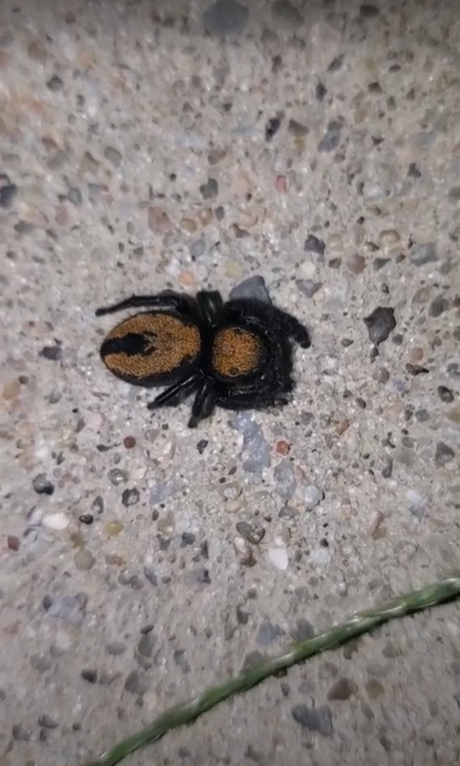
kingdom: Animalia
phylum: Arthropoda
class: Arachnida
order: Araneae
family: Salticidae
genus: Phidippus
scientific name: Phidippus apacheanus
